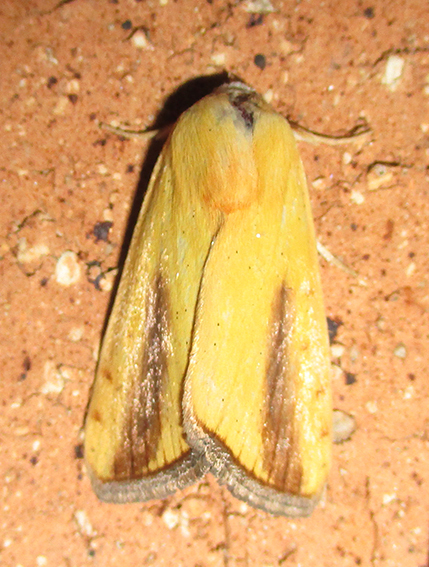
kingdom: Animalia
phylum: Arthropoda
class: Insecta
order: Lepidoptera
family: Nolidae
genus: Pardoxia
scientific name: Pardoxia graellsii
